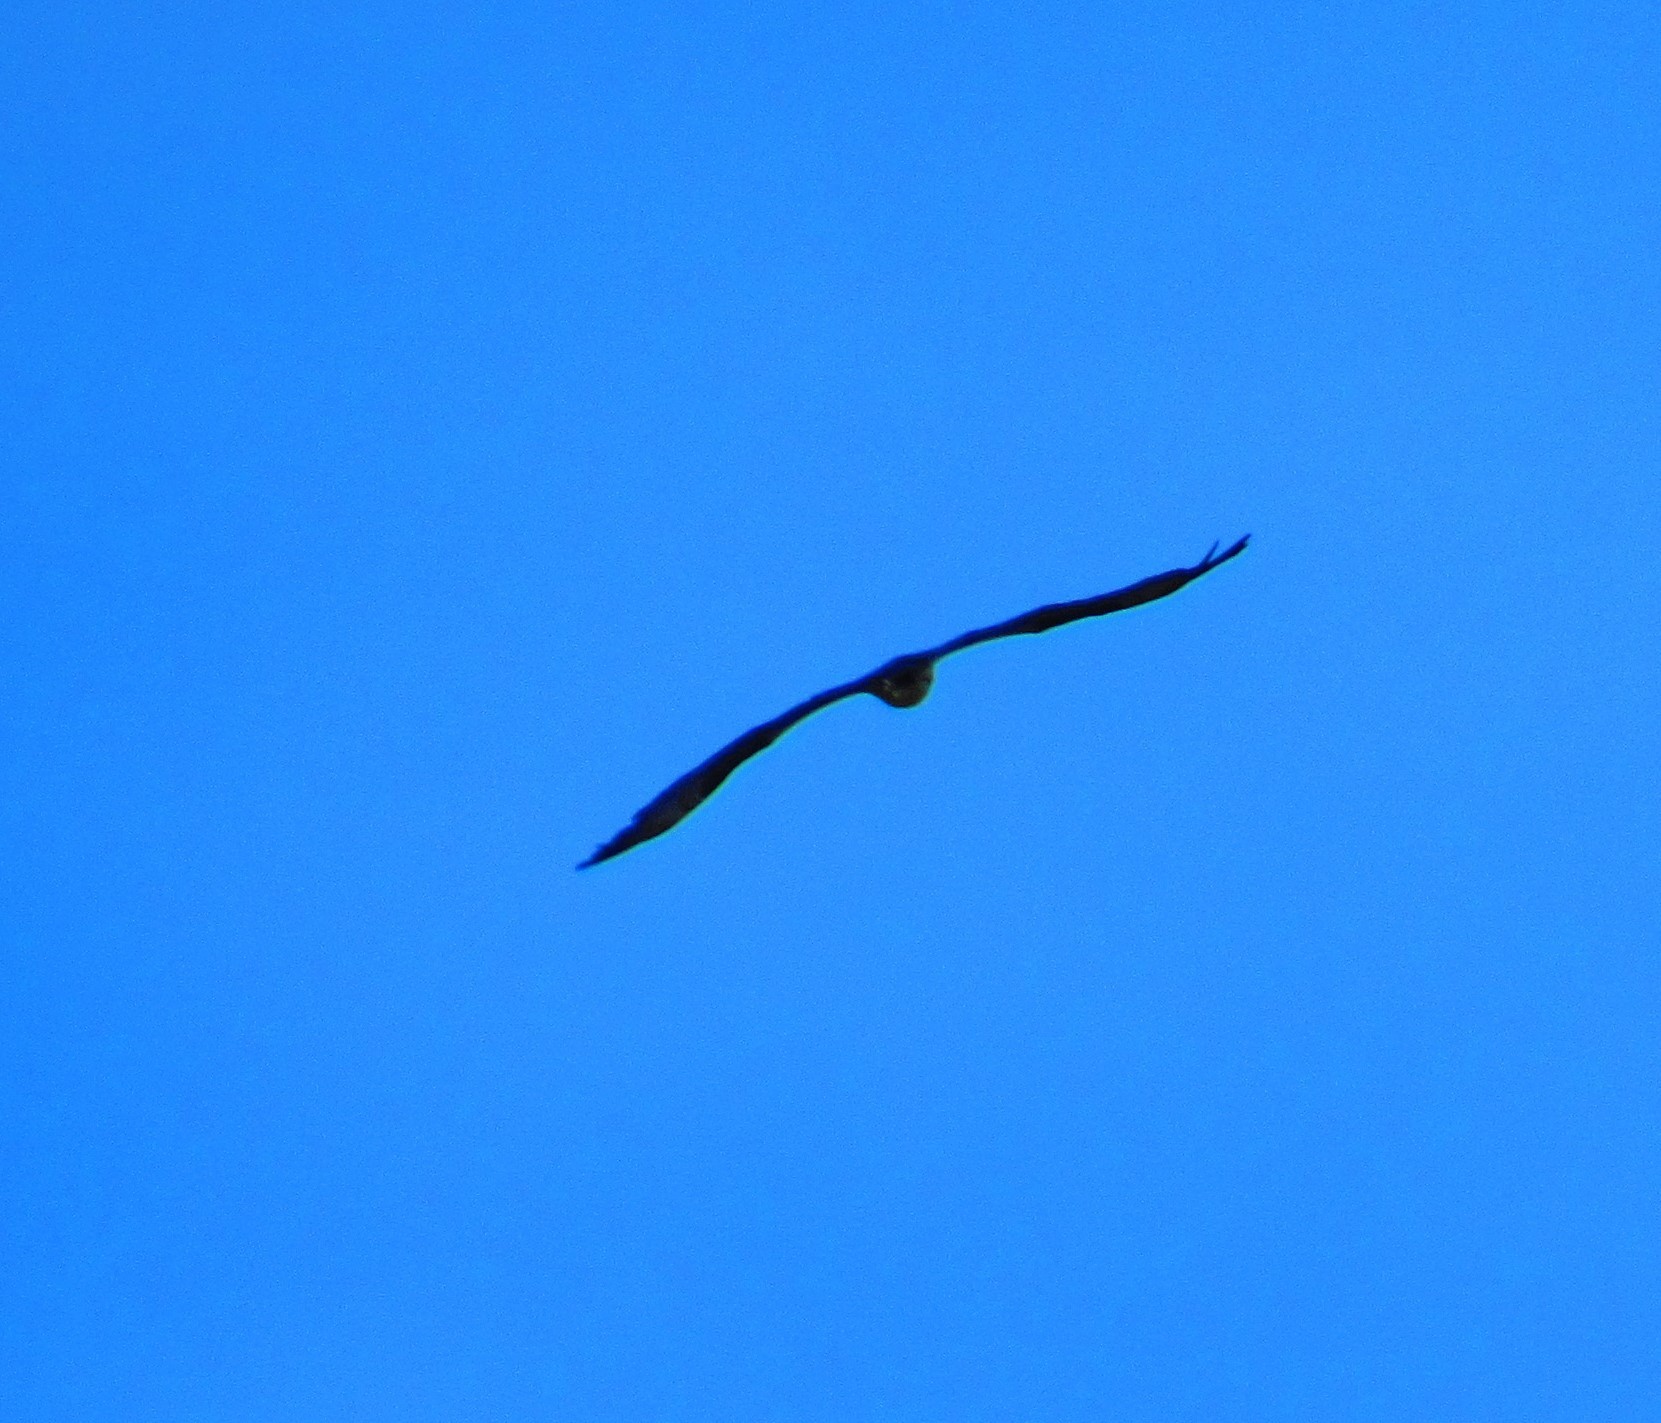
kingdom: Animalia
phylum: Chordata
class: Aves
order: Accipitriformes
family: Pandionidae
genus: Pandion
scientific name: Pandion haliaetus
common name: Osprey
